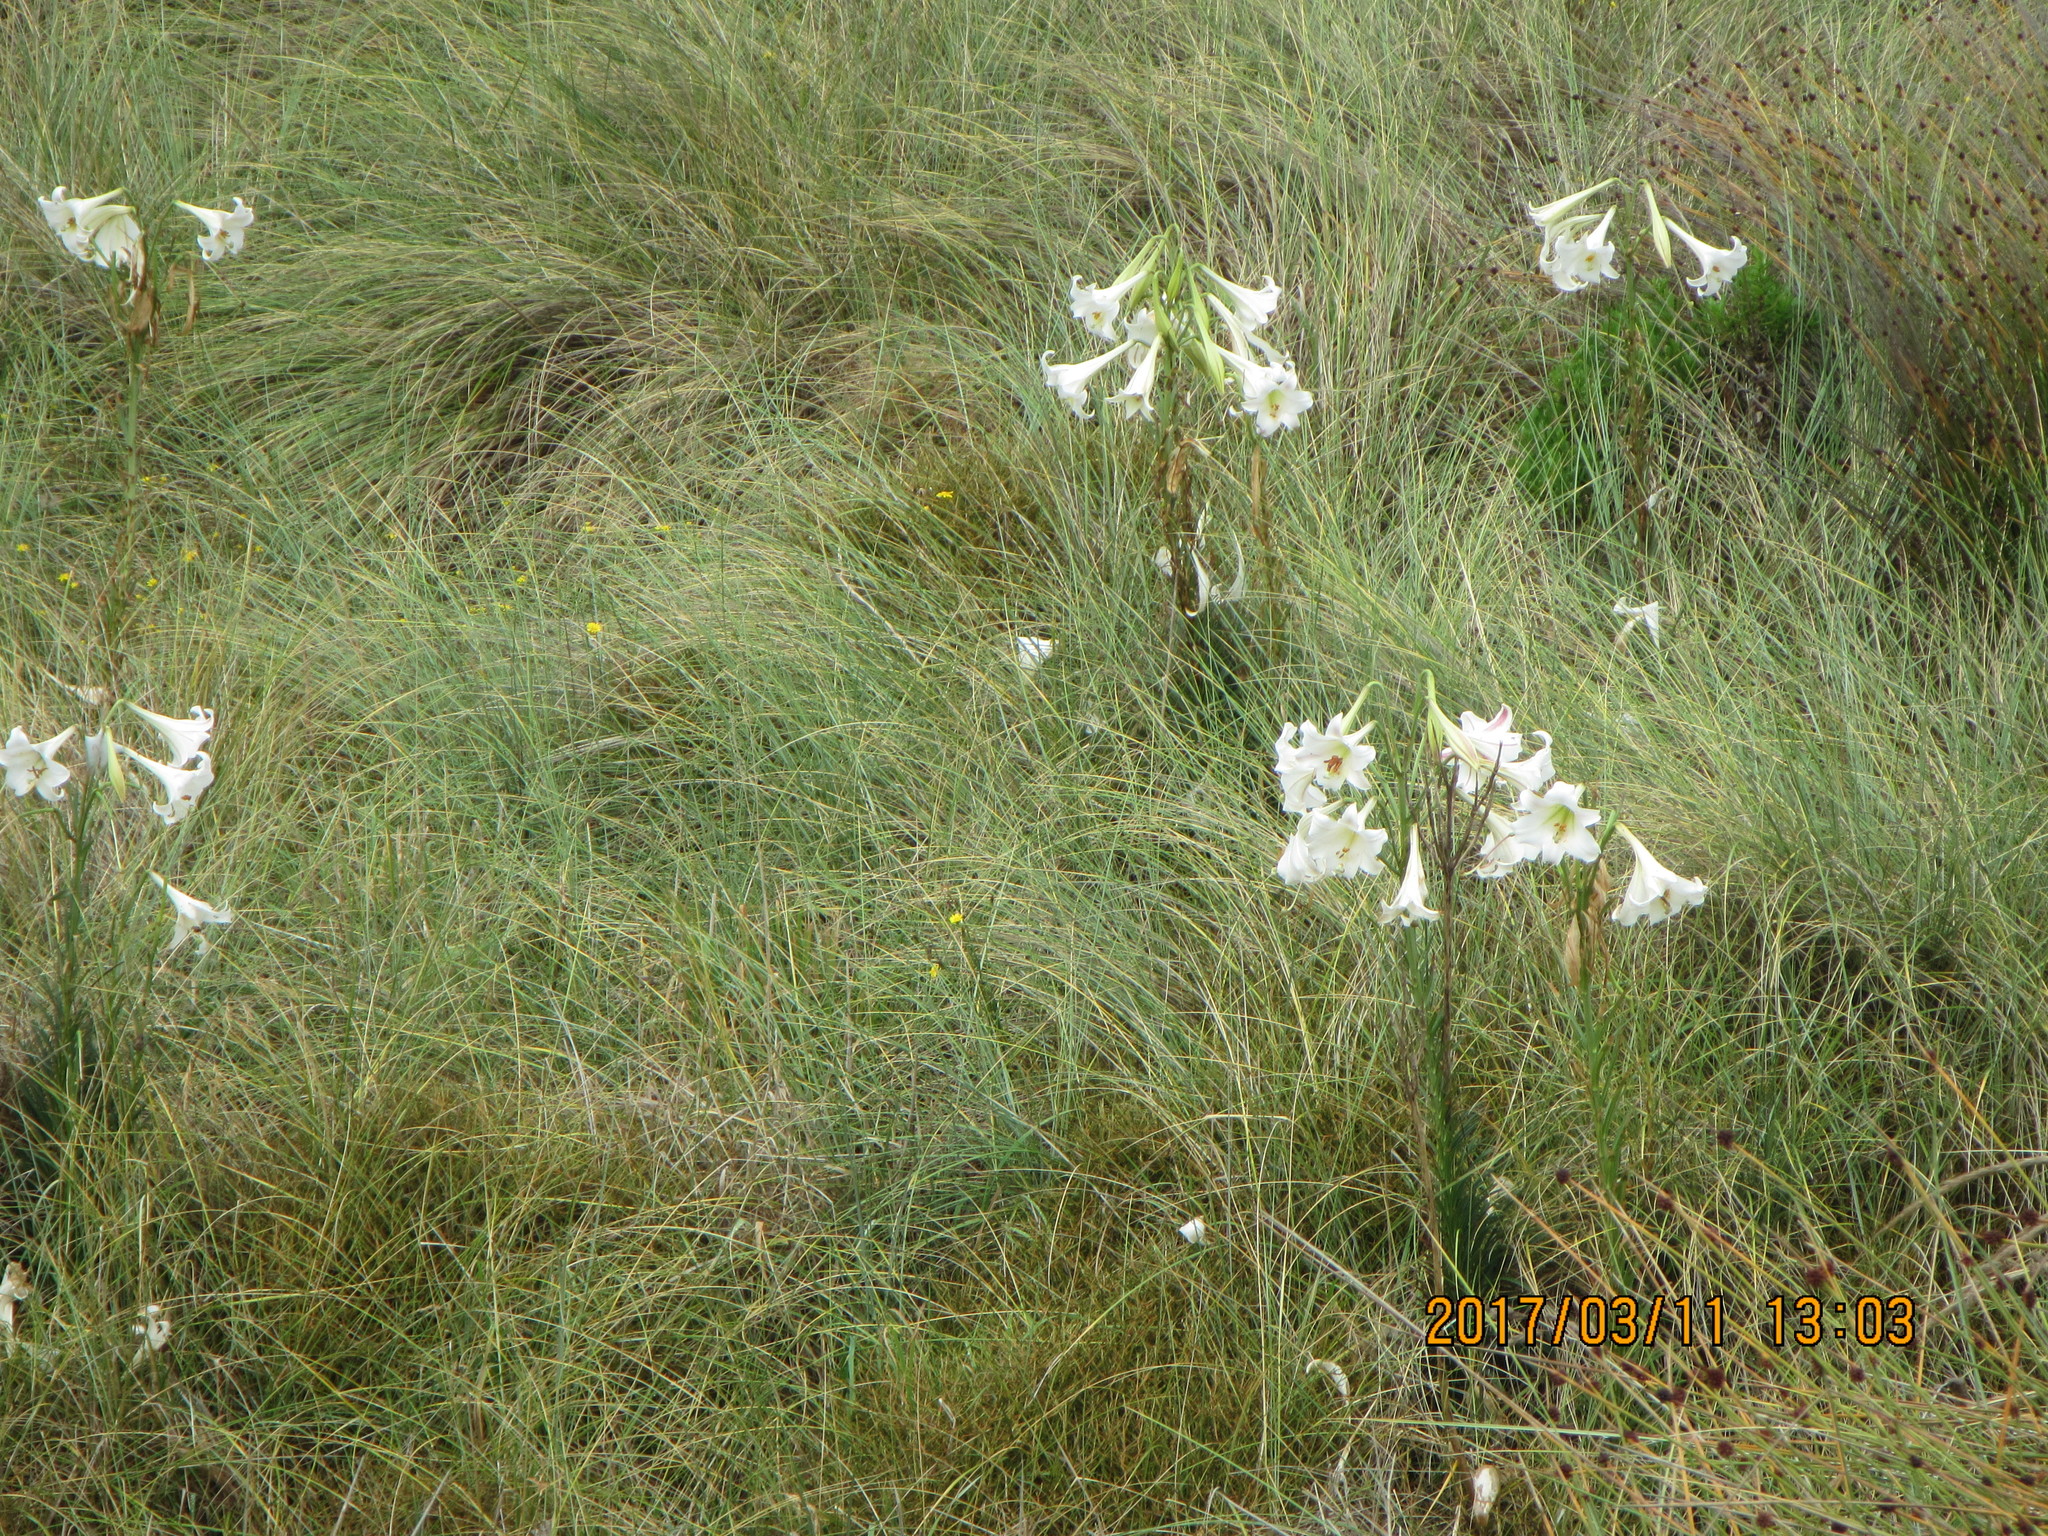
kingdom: Plantae
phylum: Tracheophyta
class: Liliopsida
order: Liliales
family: Liliaceae
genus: Lilium
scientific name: Lilium formosanum
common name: Formosa lily
